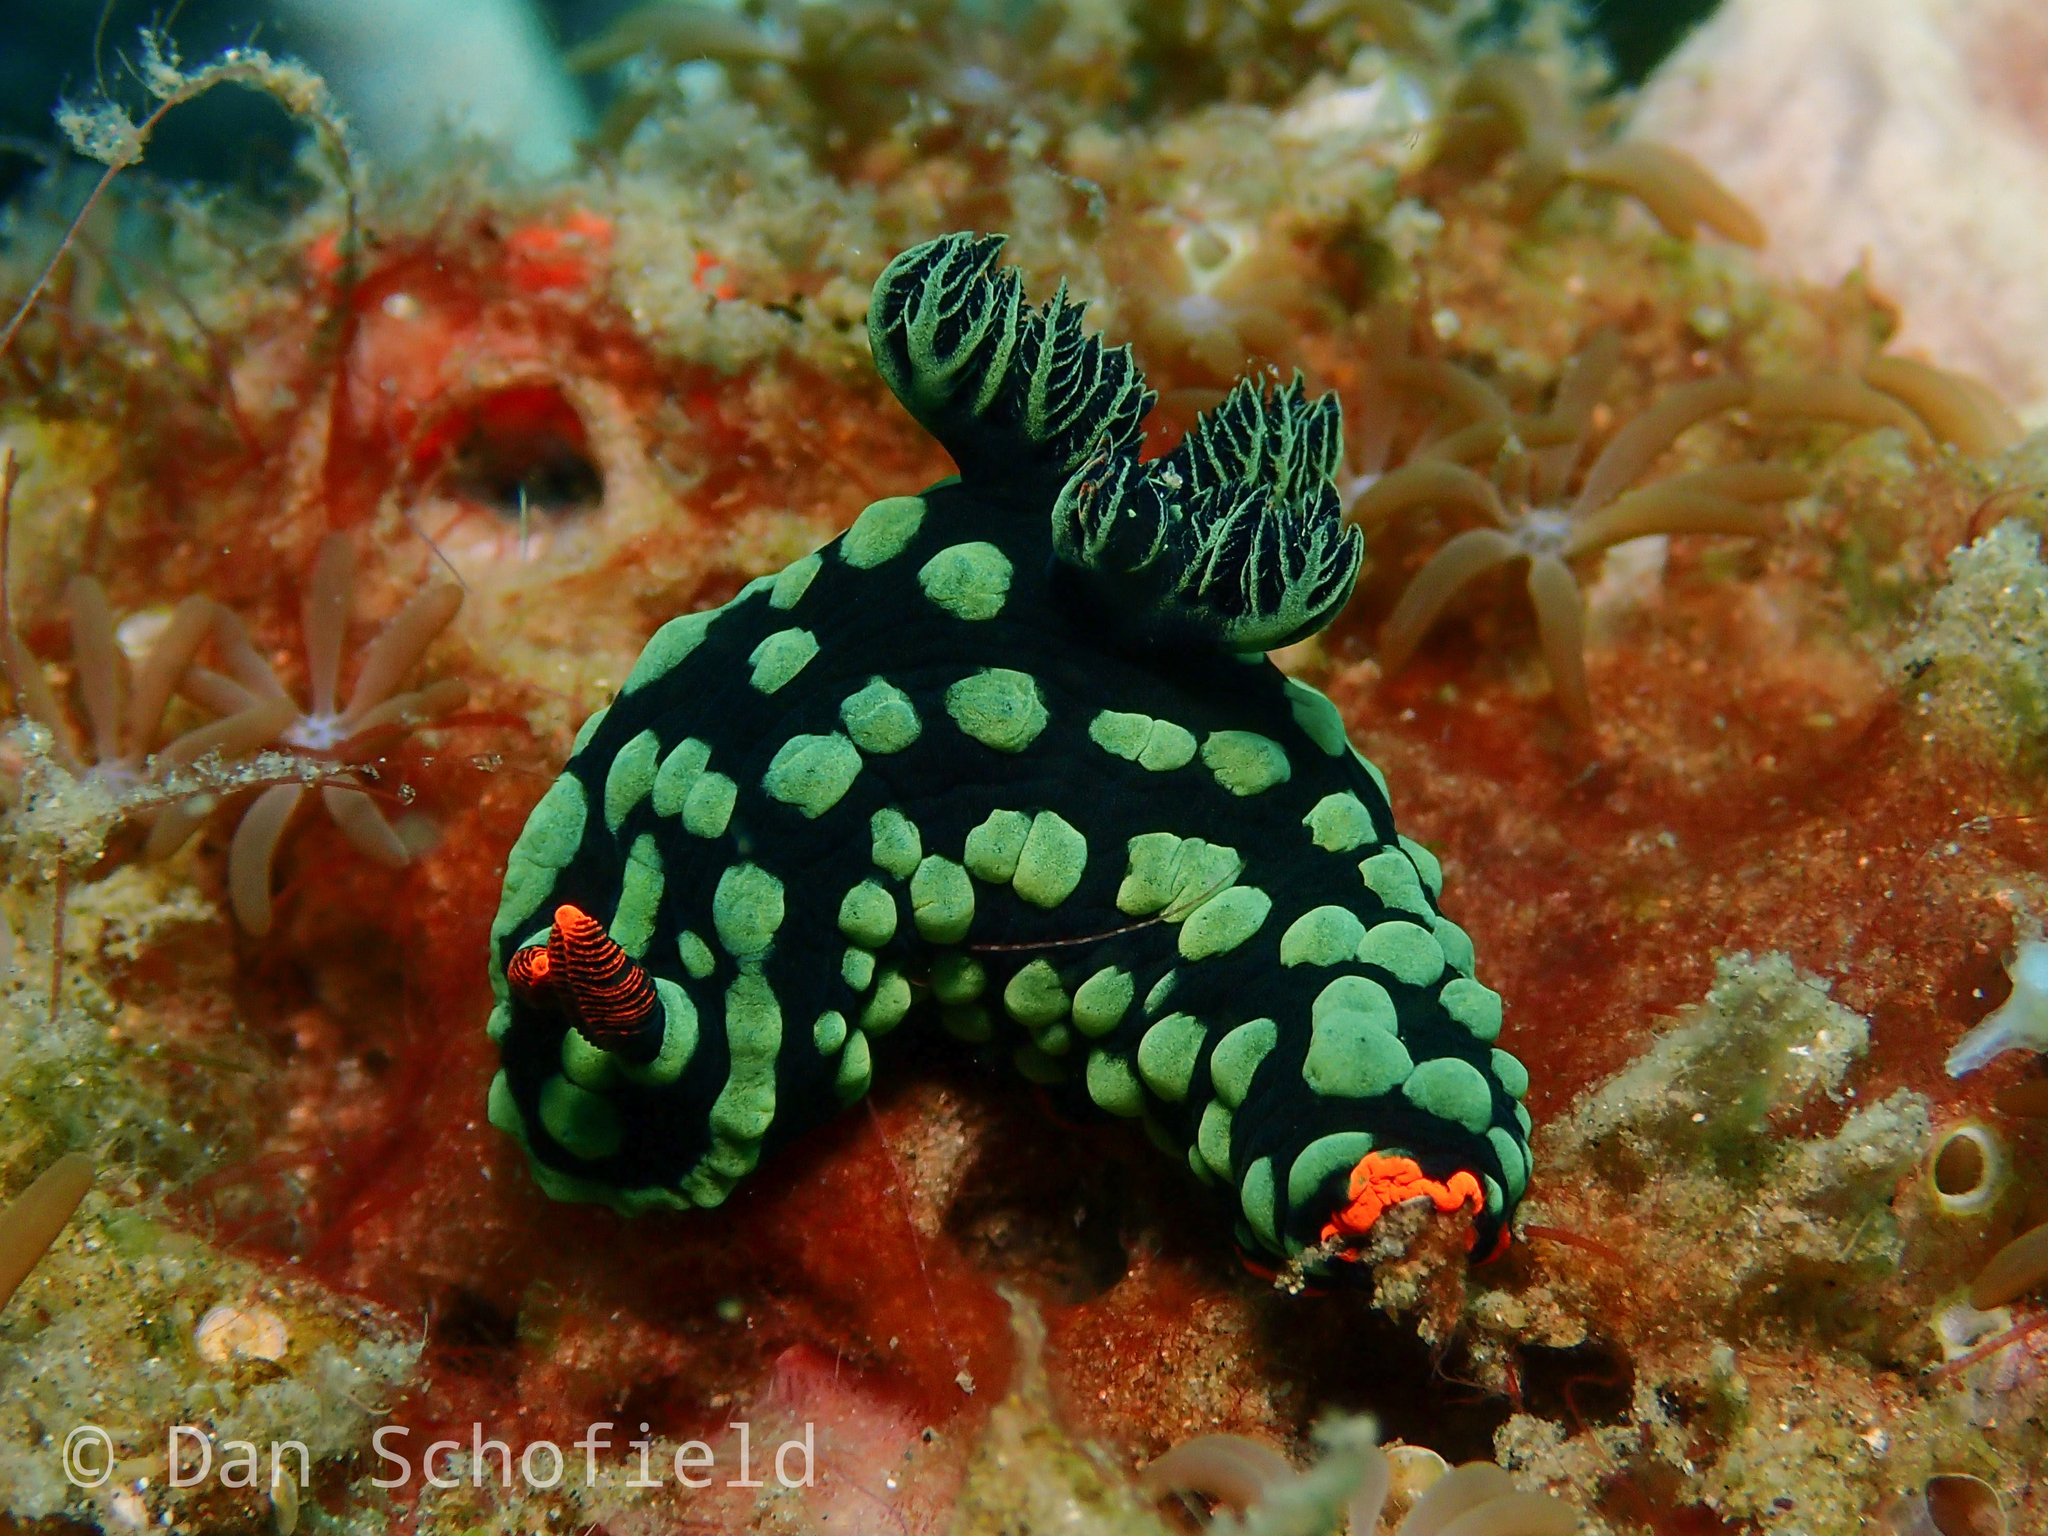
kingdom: Animalia
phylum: Mollusca
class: Gastropoda
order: Nudibranchia
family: Polyceridae
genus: Nembrotha
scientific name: Nembrotha kubaryana
